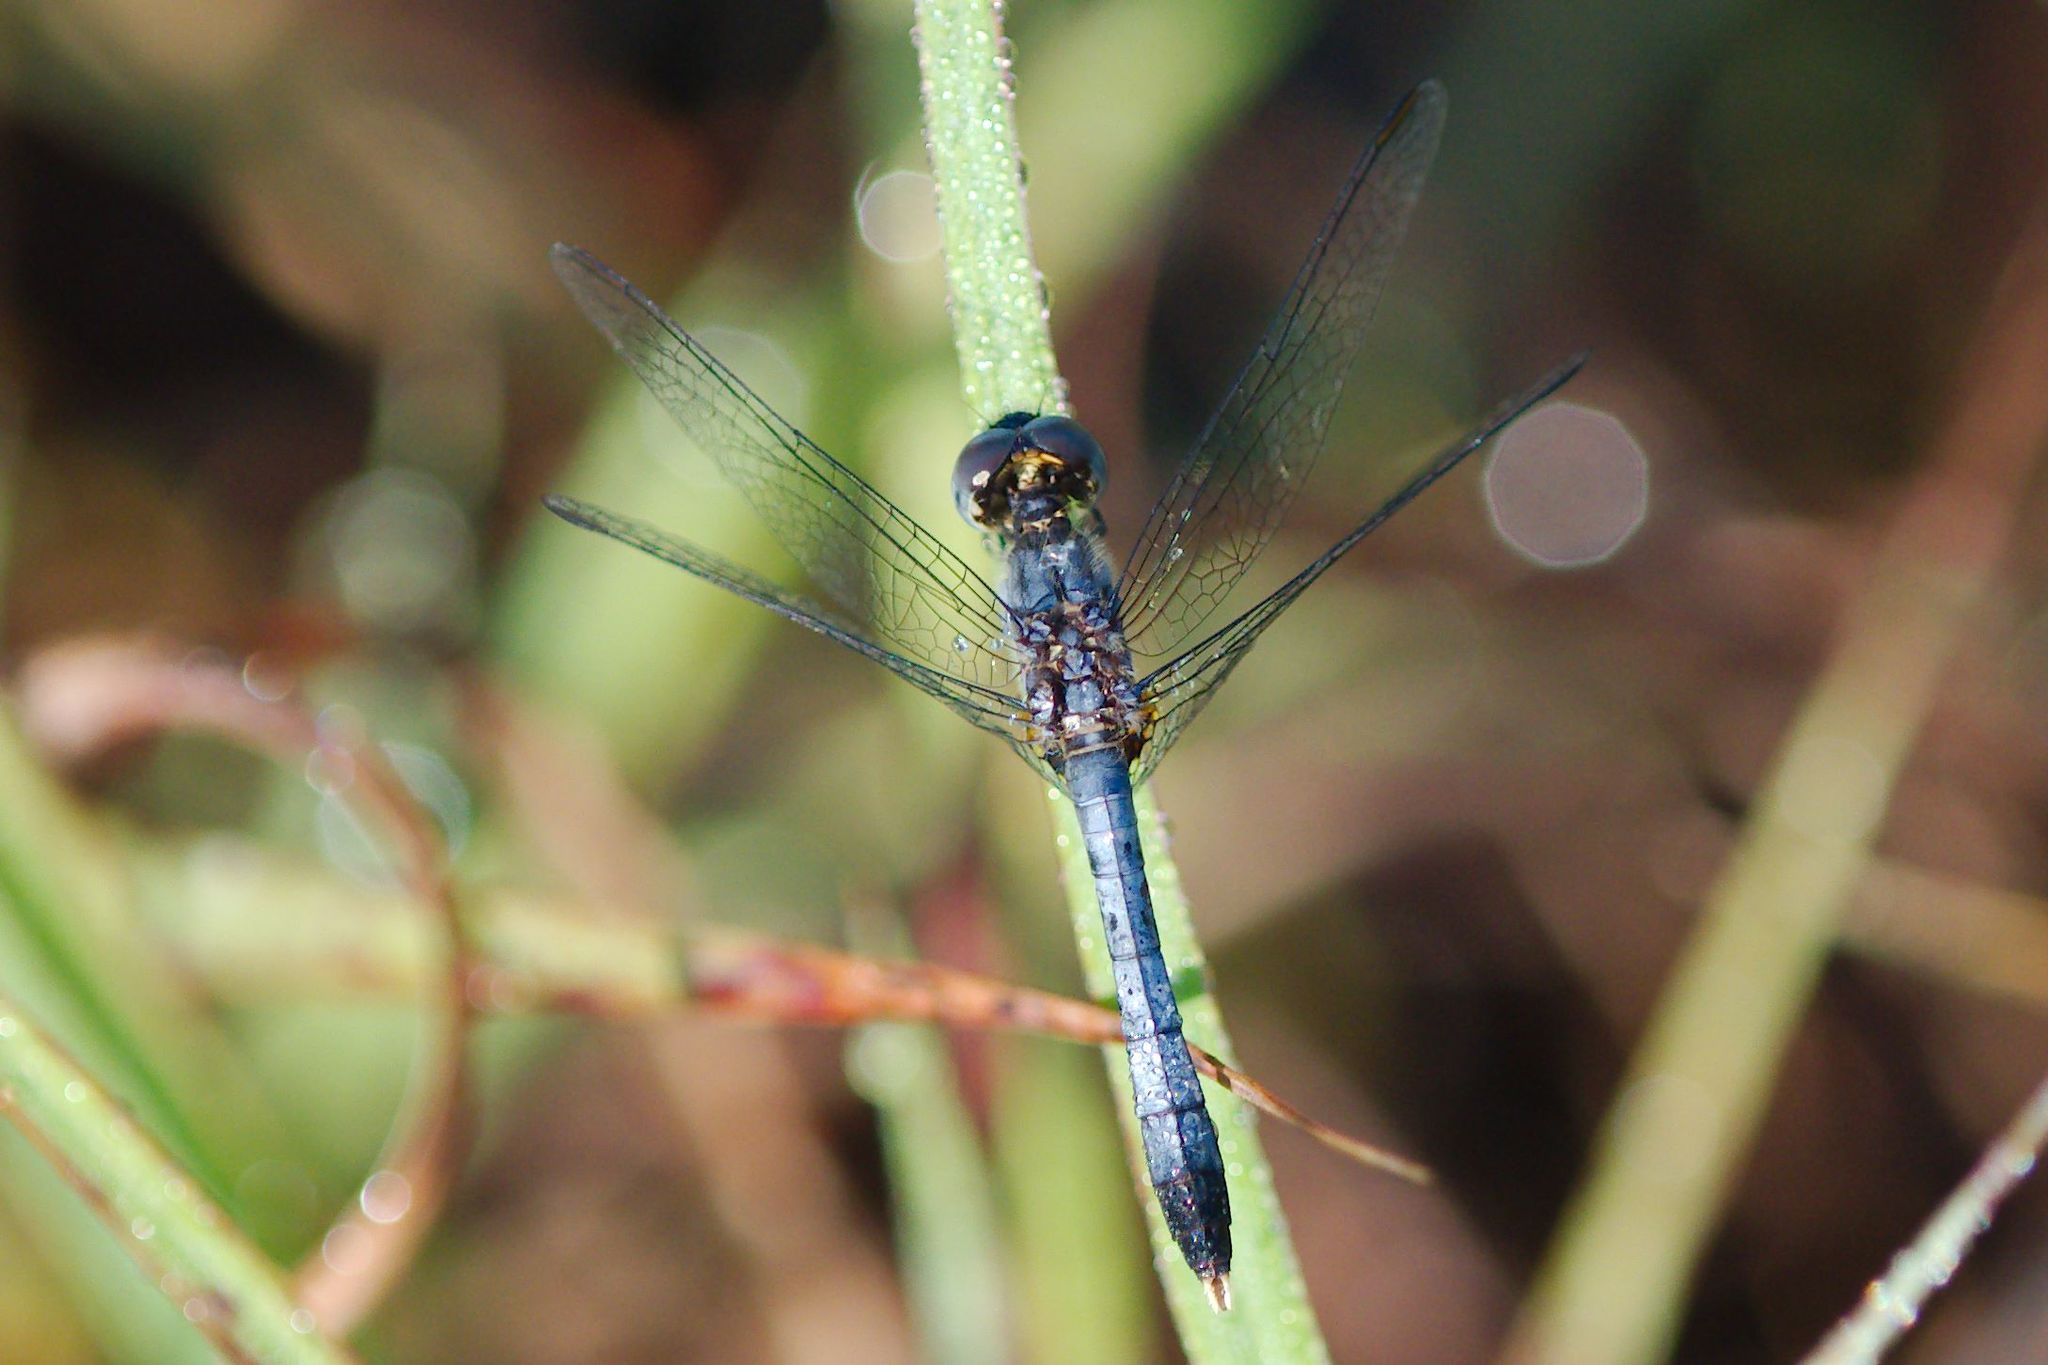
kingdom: Animalia
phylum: Arthropoda
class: Insecta
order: Odonata
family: Libellulidae
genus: Erythrodiplax
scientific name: Erythrodiplax minuscula
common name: Little blue dragonlet
